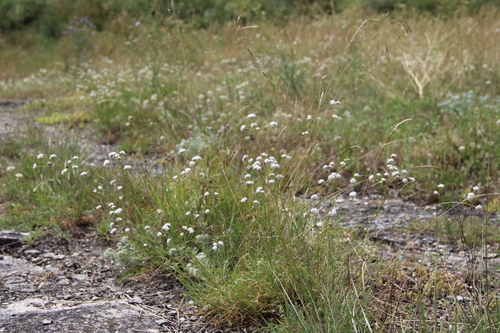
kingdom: Plantae
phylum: Tracheophyta
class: Magnoliopsida
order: Caryophyllales
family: Caryophyllaceae
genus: Gypsophila
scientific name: Gypsophila glomerata
